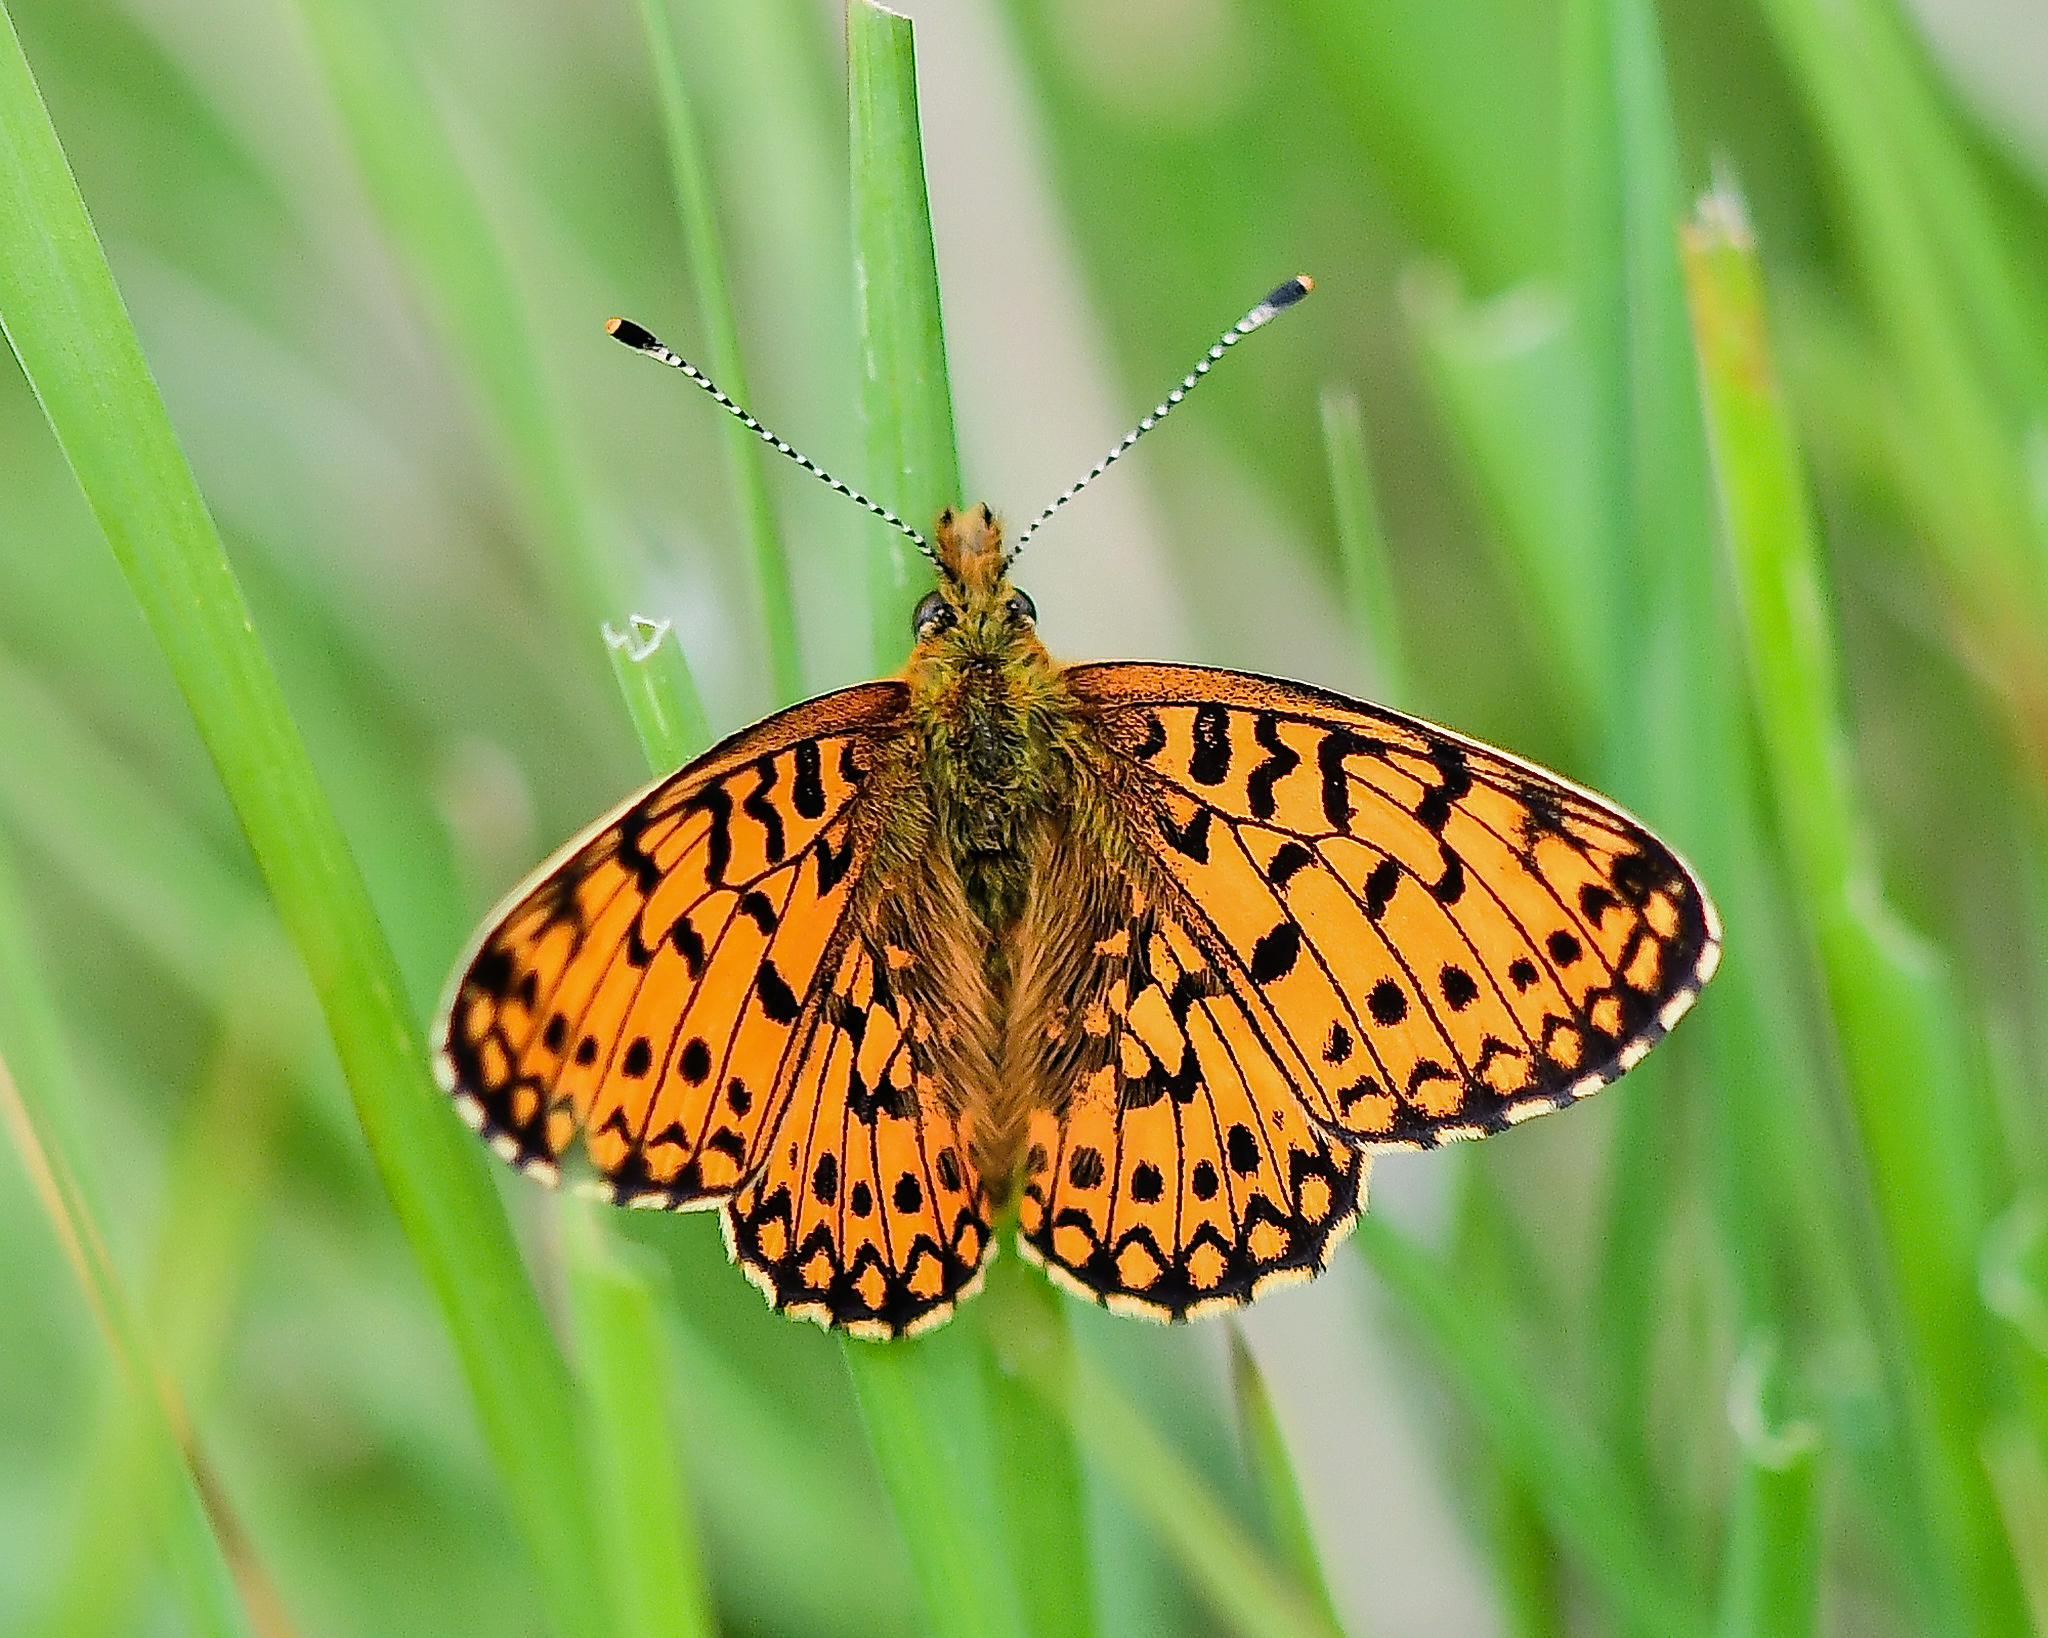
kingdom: Animalia
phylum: Arthropoda
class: Insecta
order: Lepidoptera
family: Nymphalidae
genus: Boloria
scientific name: Boloria selene
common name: Small pearl-bordered fritillary
